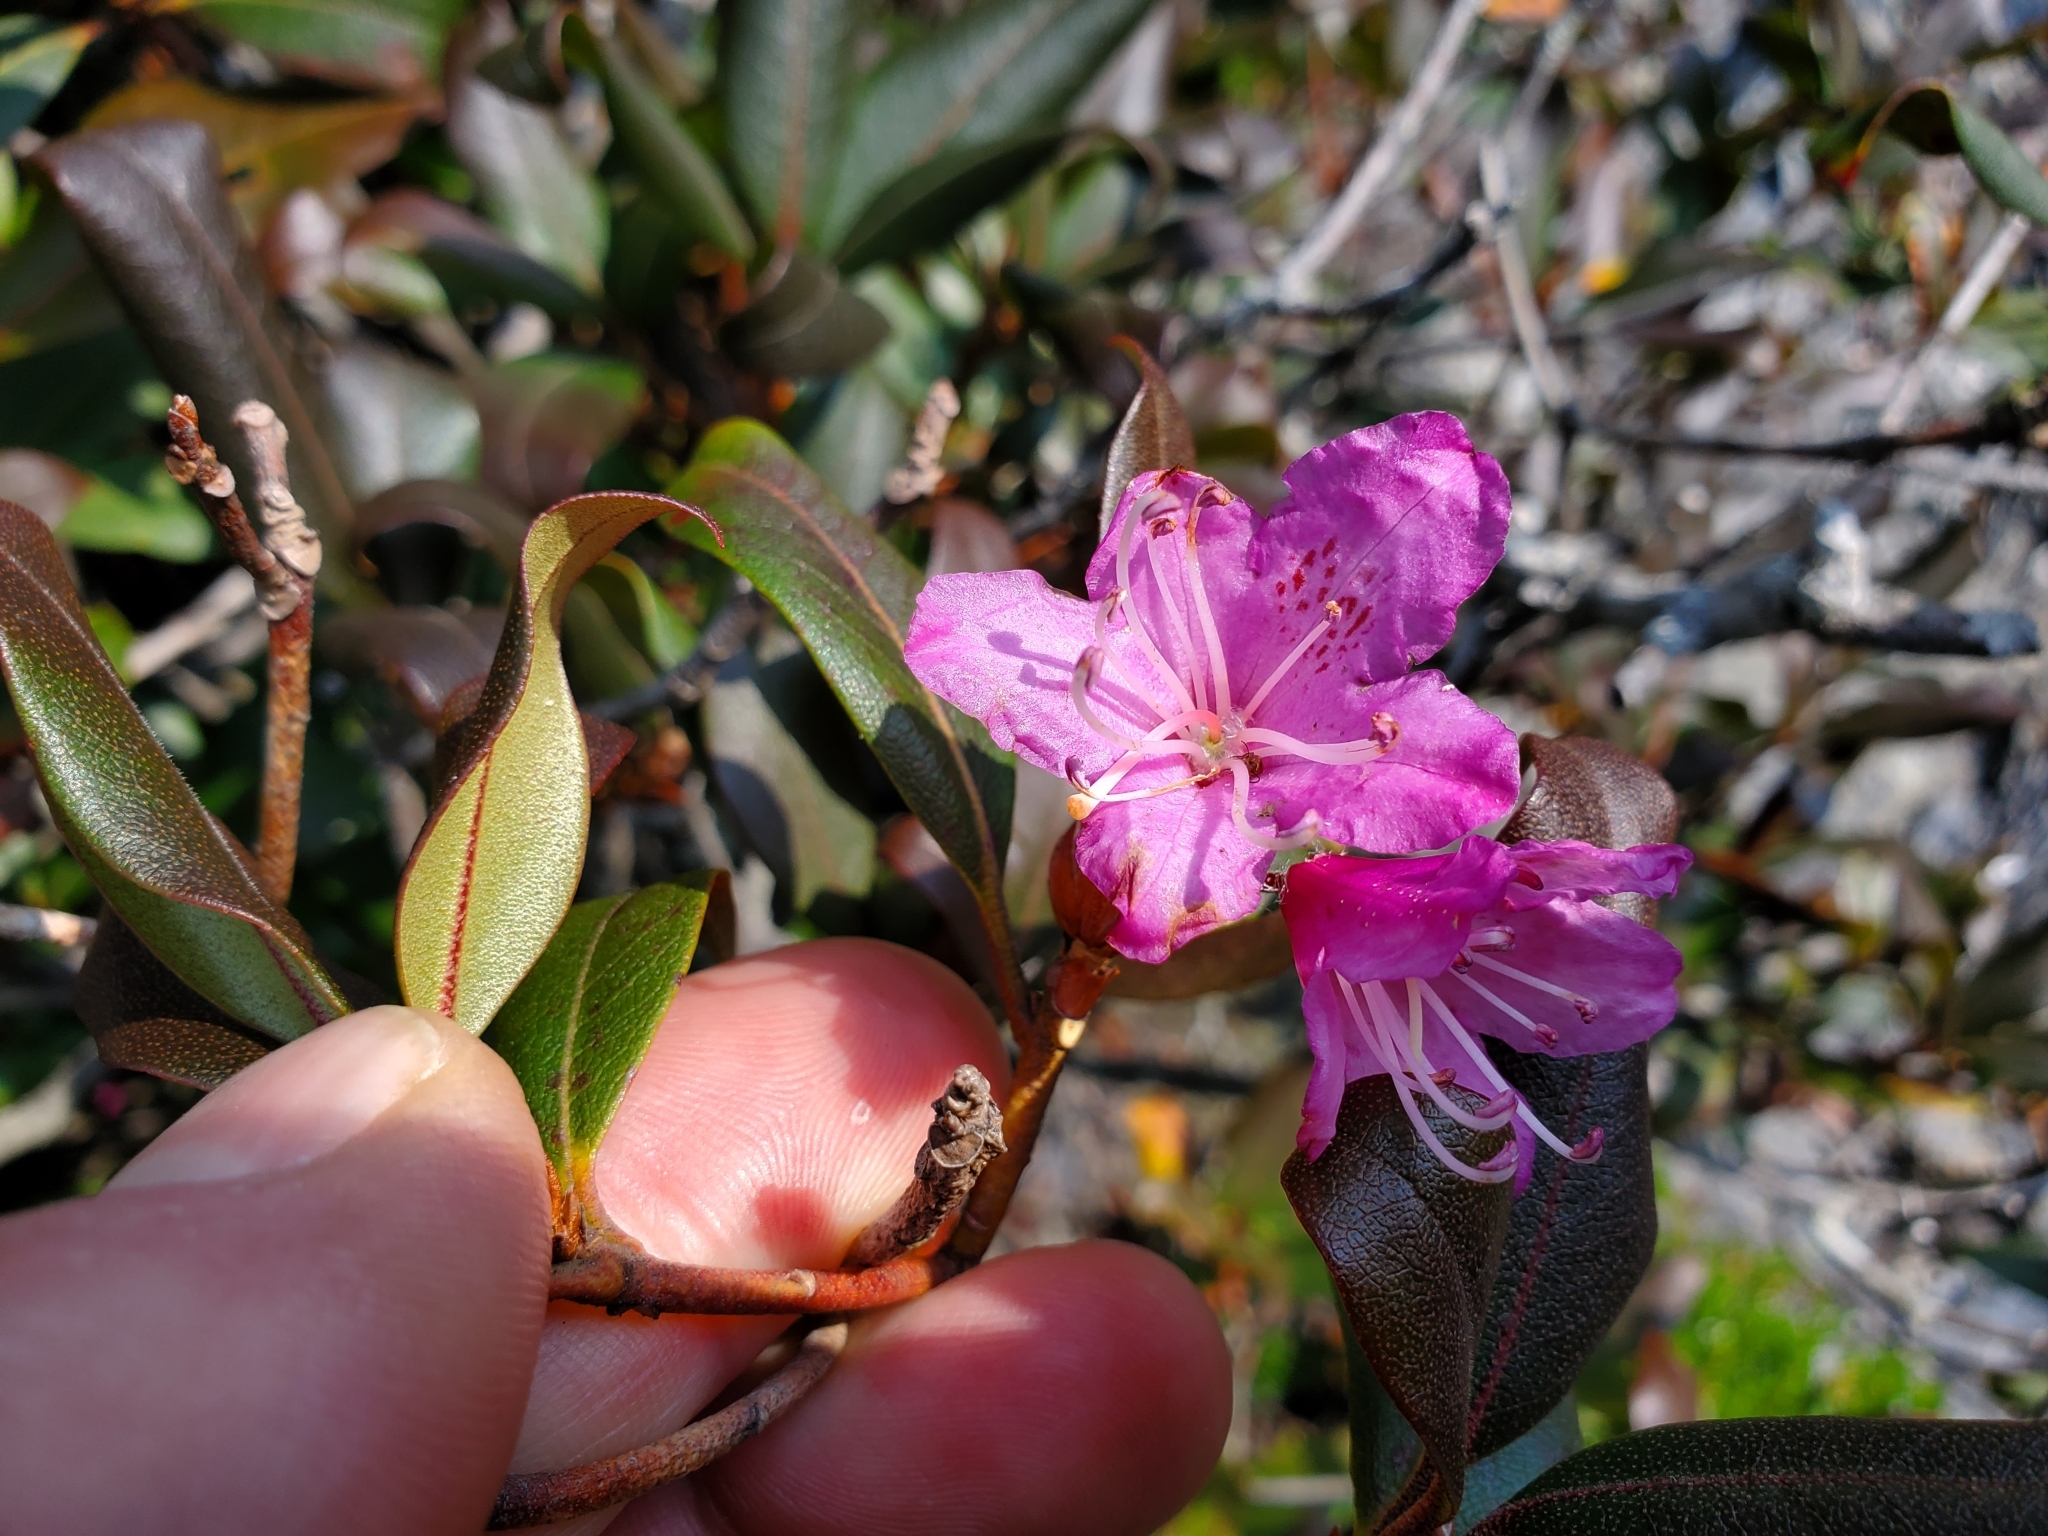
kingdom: Plantae
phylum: Tracheophyta
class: Magnoliopsida
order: Ericales
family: Ericaceae
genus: Rhododendron
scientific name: Rhododendron smokianum
